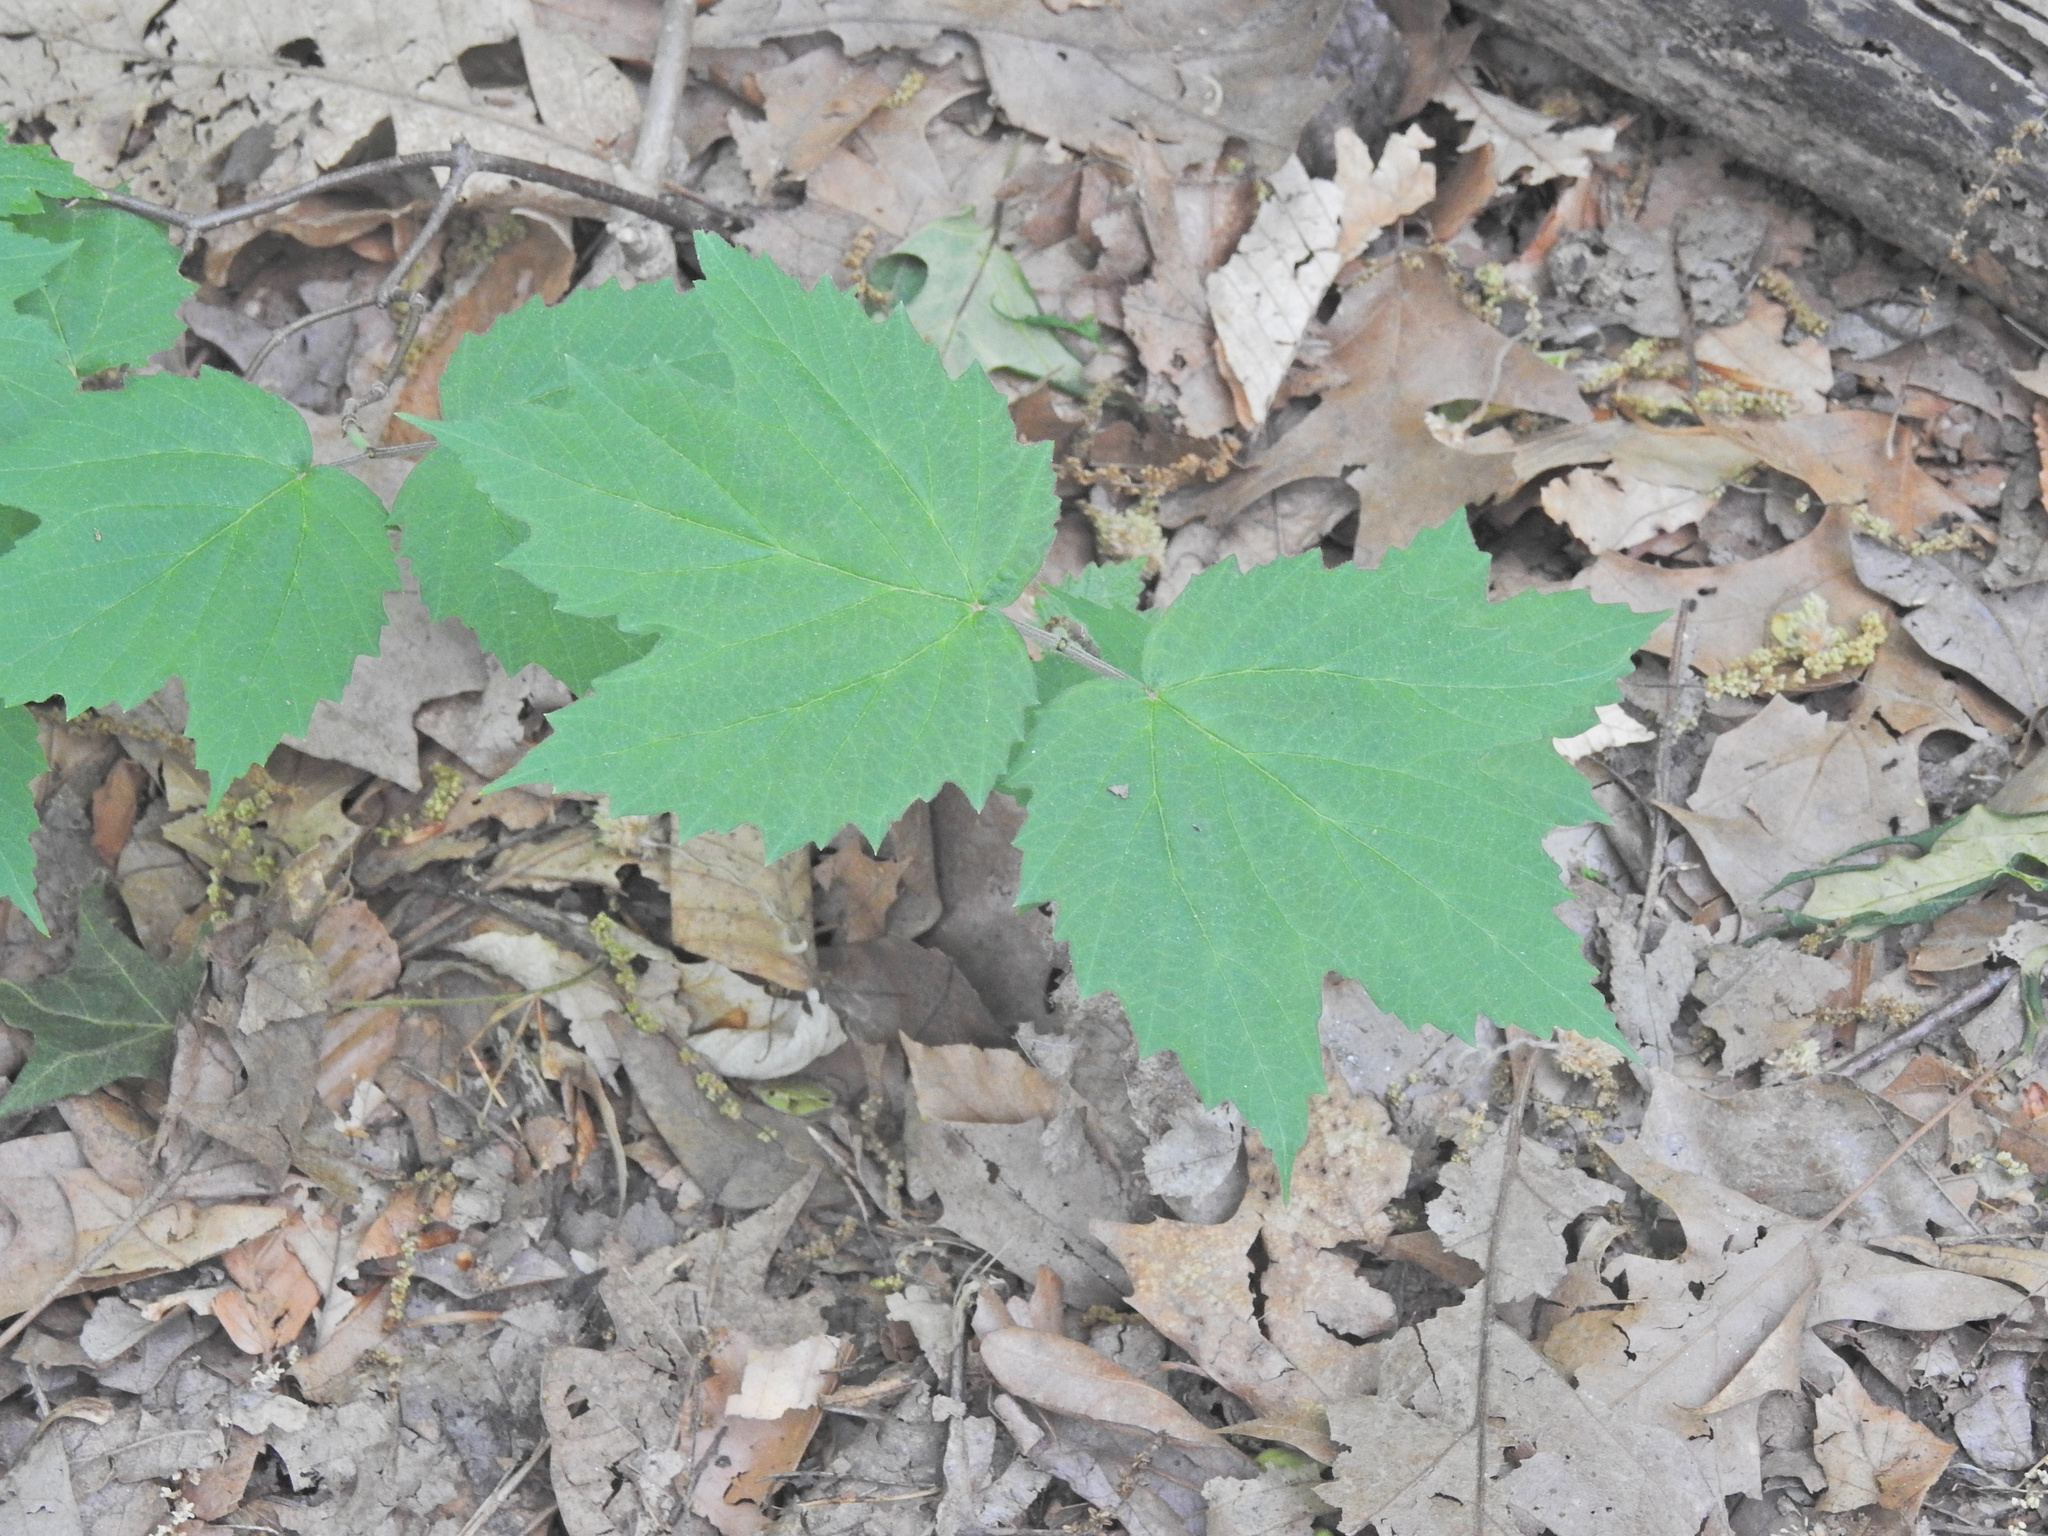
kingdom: Plantae
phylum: Tracheophyta
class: Magnoliopsida
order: Dipsacales
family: Viburnaceae
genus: Viburnum
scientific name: Viburnum acerifolium
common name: Dockmackie
